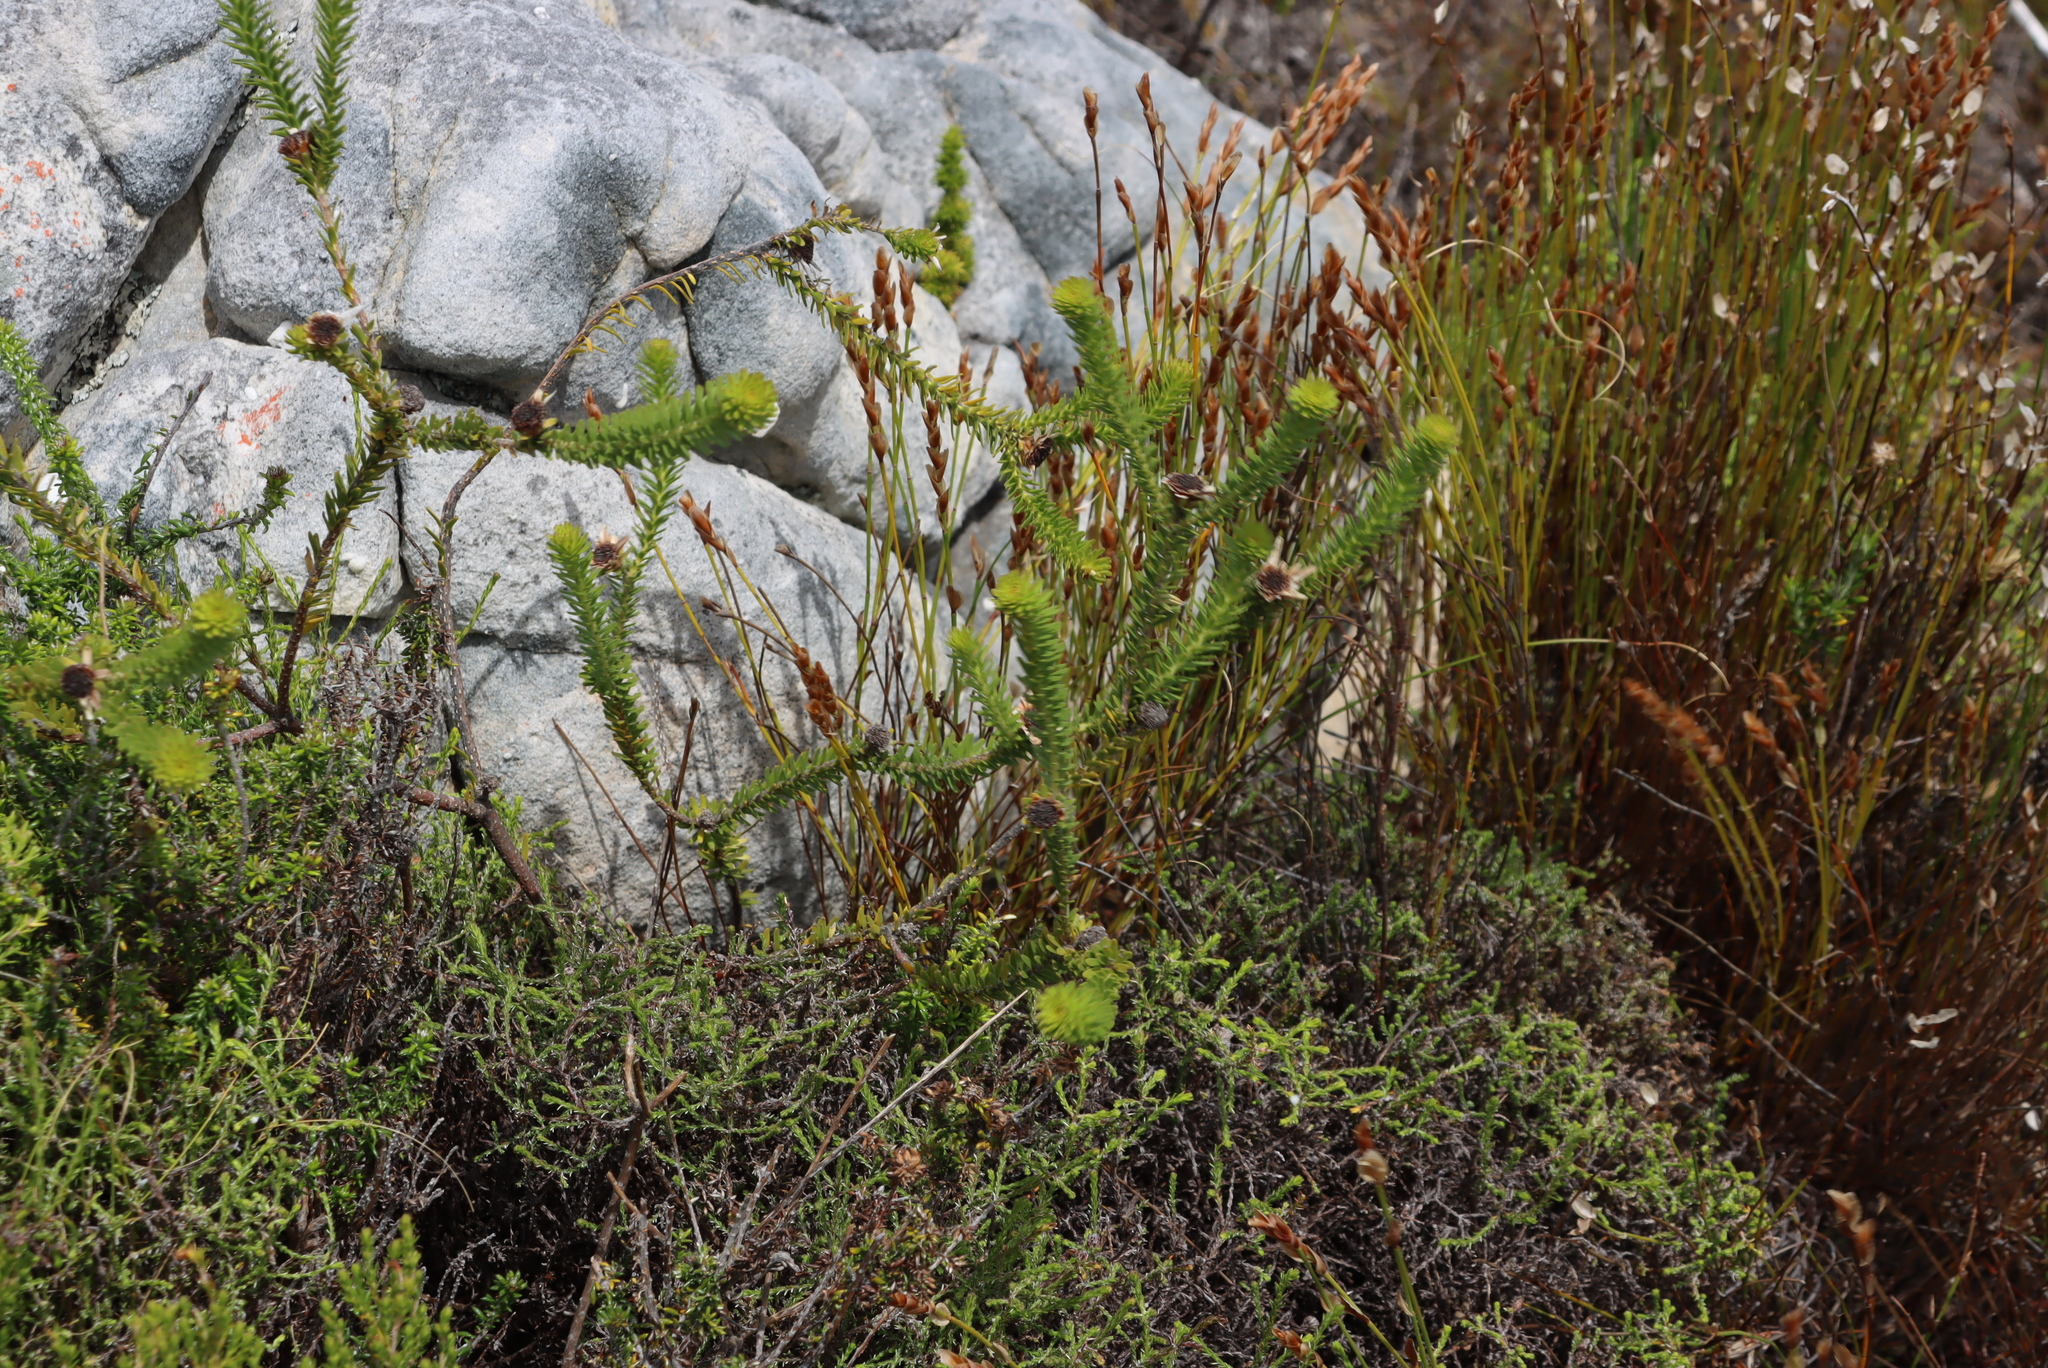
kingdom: Plantae
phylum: Tracheophyta
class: Magnoliopsida
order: Bruniales
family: Bruniaceae
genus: Staavia
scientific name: Staavia dodii
